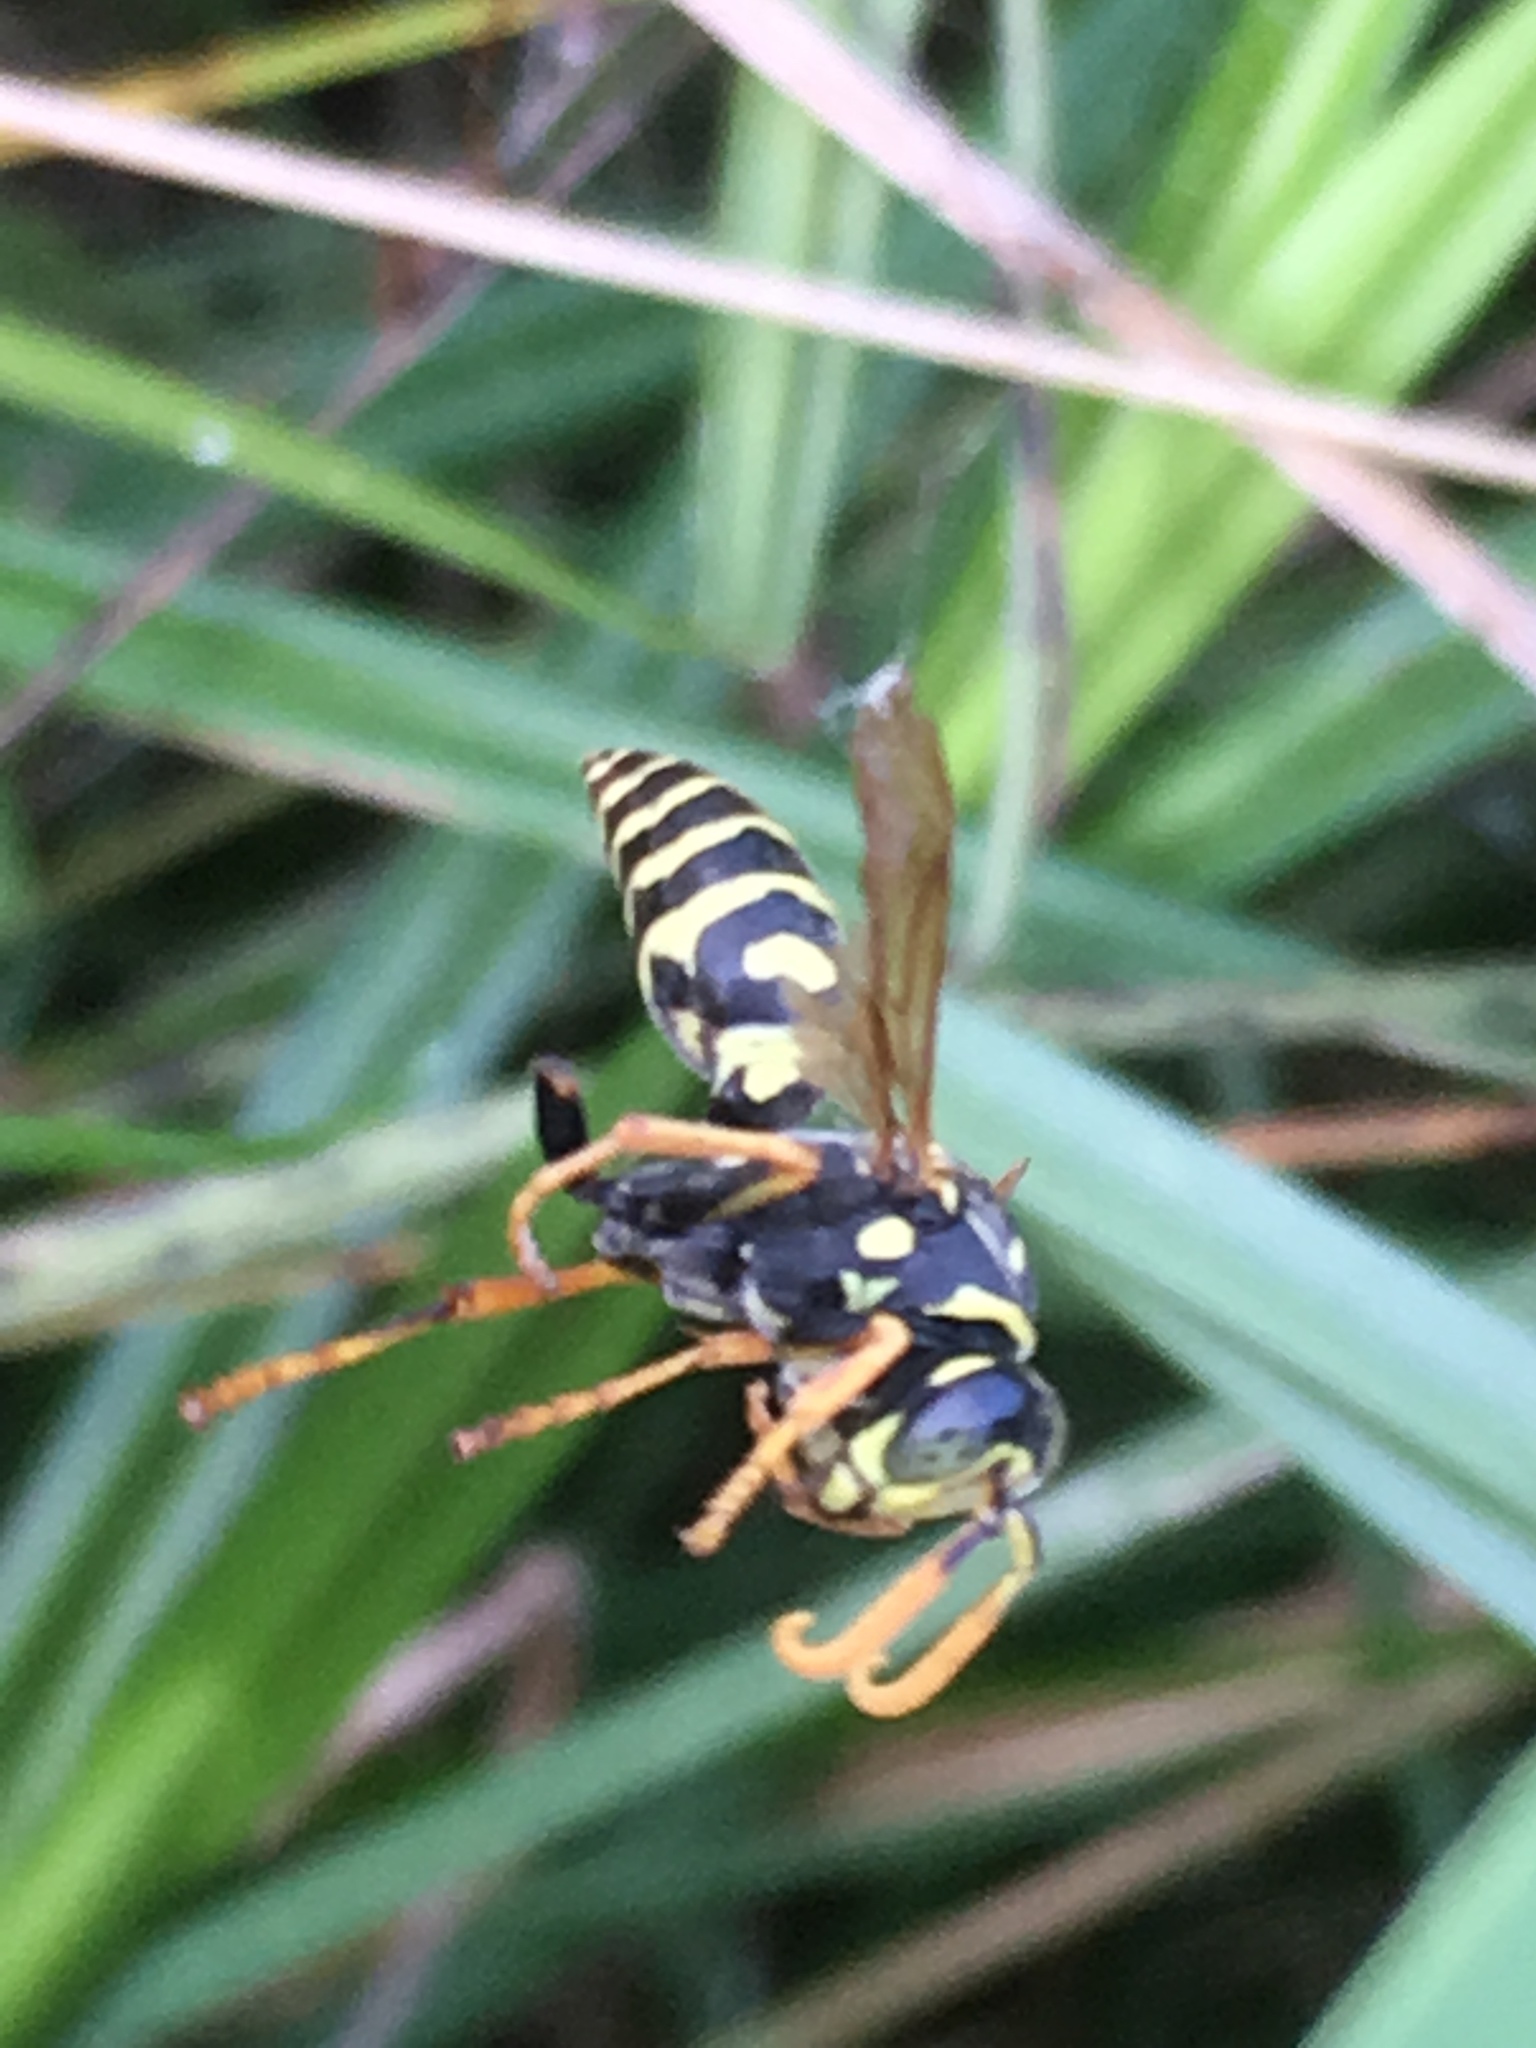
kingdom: Animalia
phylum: Arthropoda
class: Insecta
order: Hymenoptera
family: Eumenidae
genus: Polistes
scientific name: Polistes dominula
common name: Paper wasp
